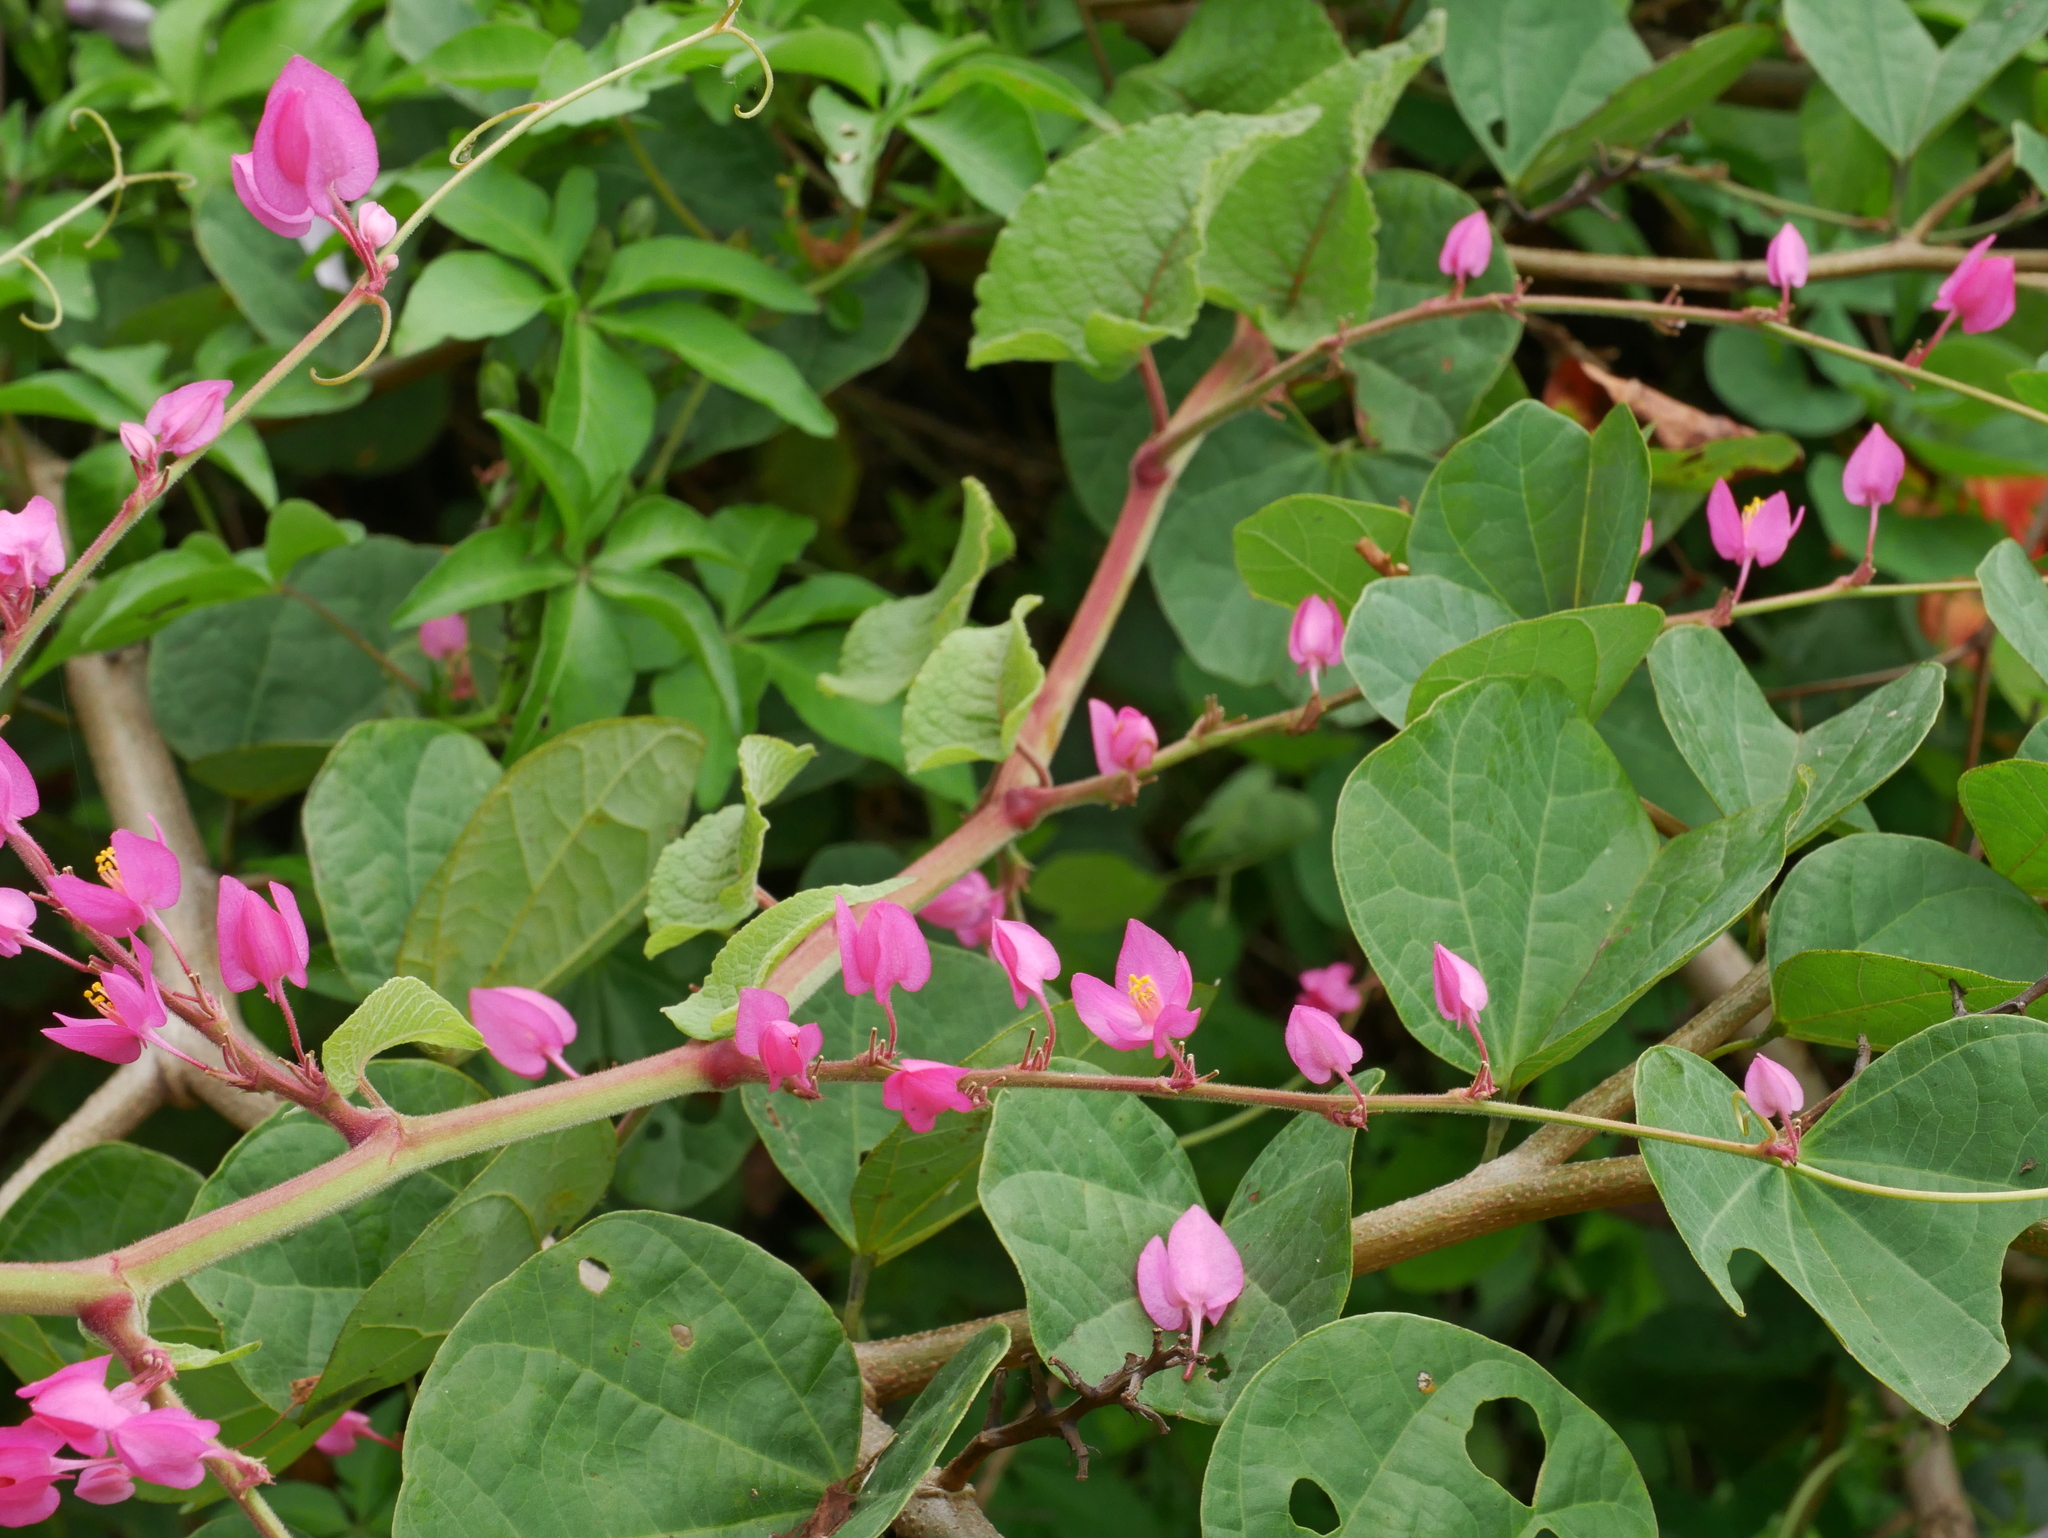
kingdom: Plantae
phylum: Tracheophyta
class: Magnoliopsida
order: Caryophyllales
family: Polygonaceae
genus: Antigonon
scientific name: Antigonon leptopus
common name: Coral vine
